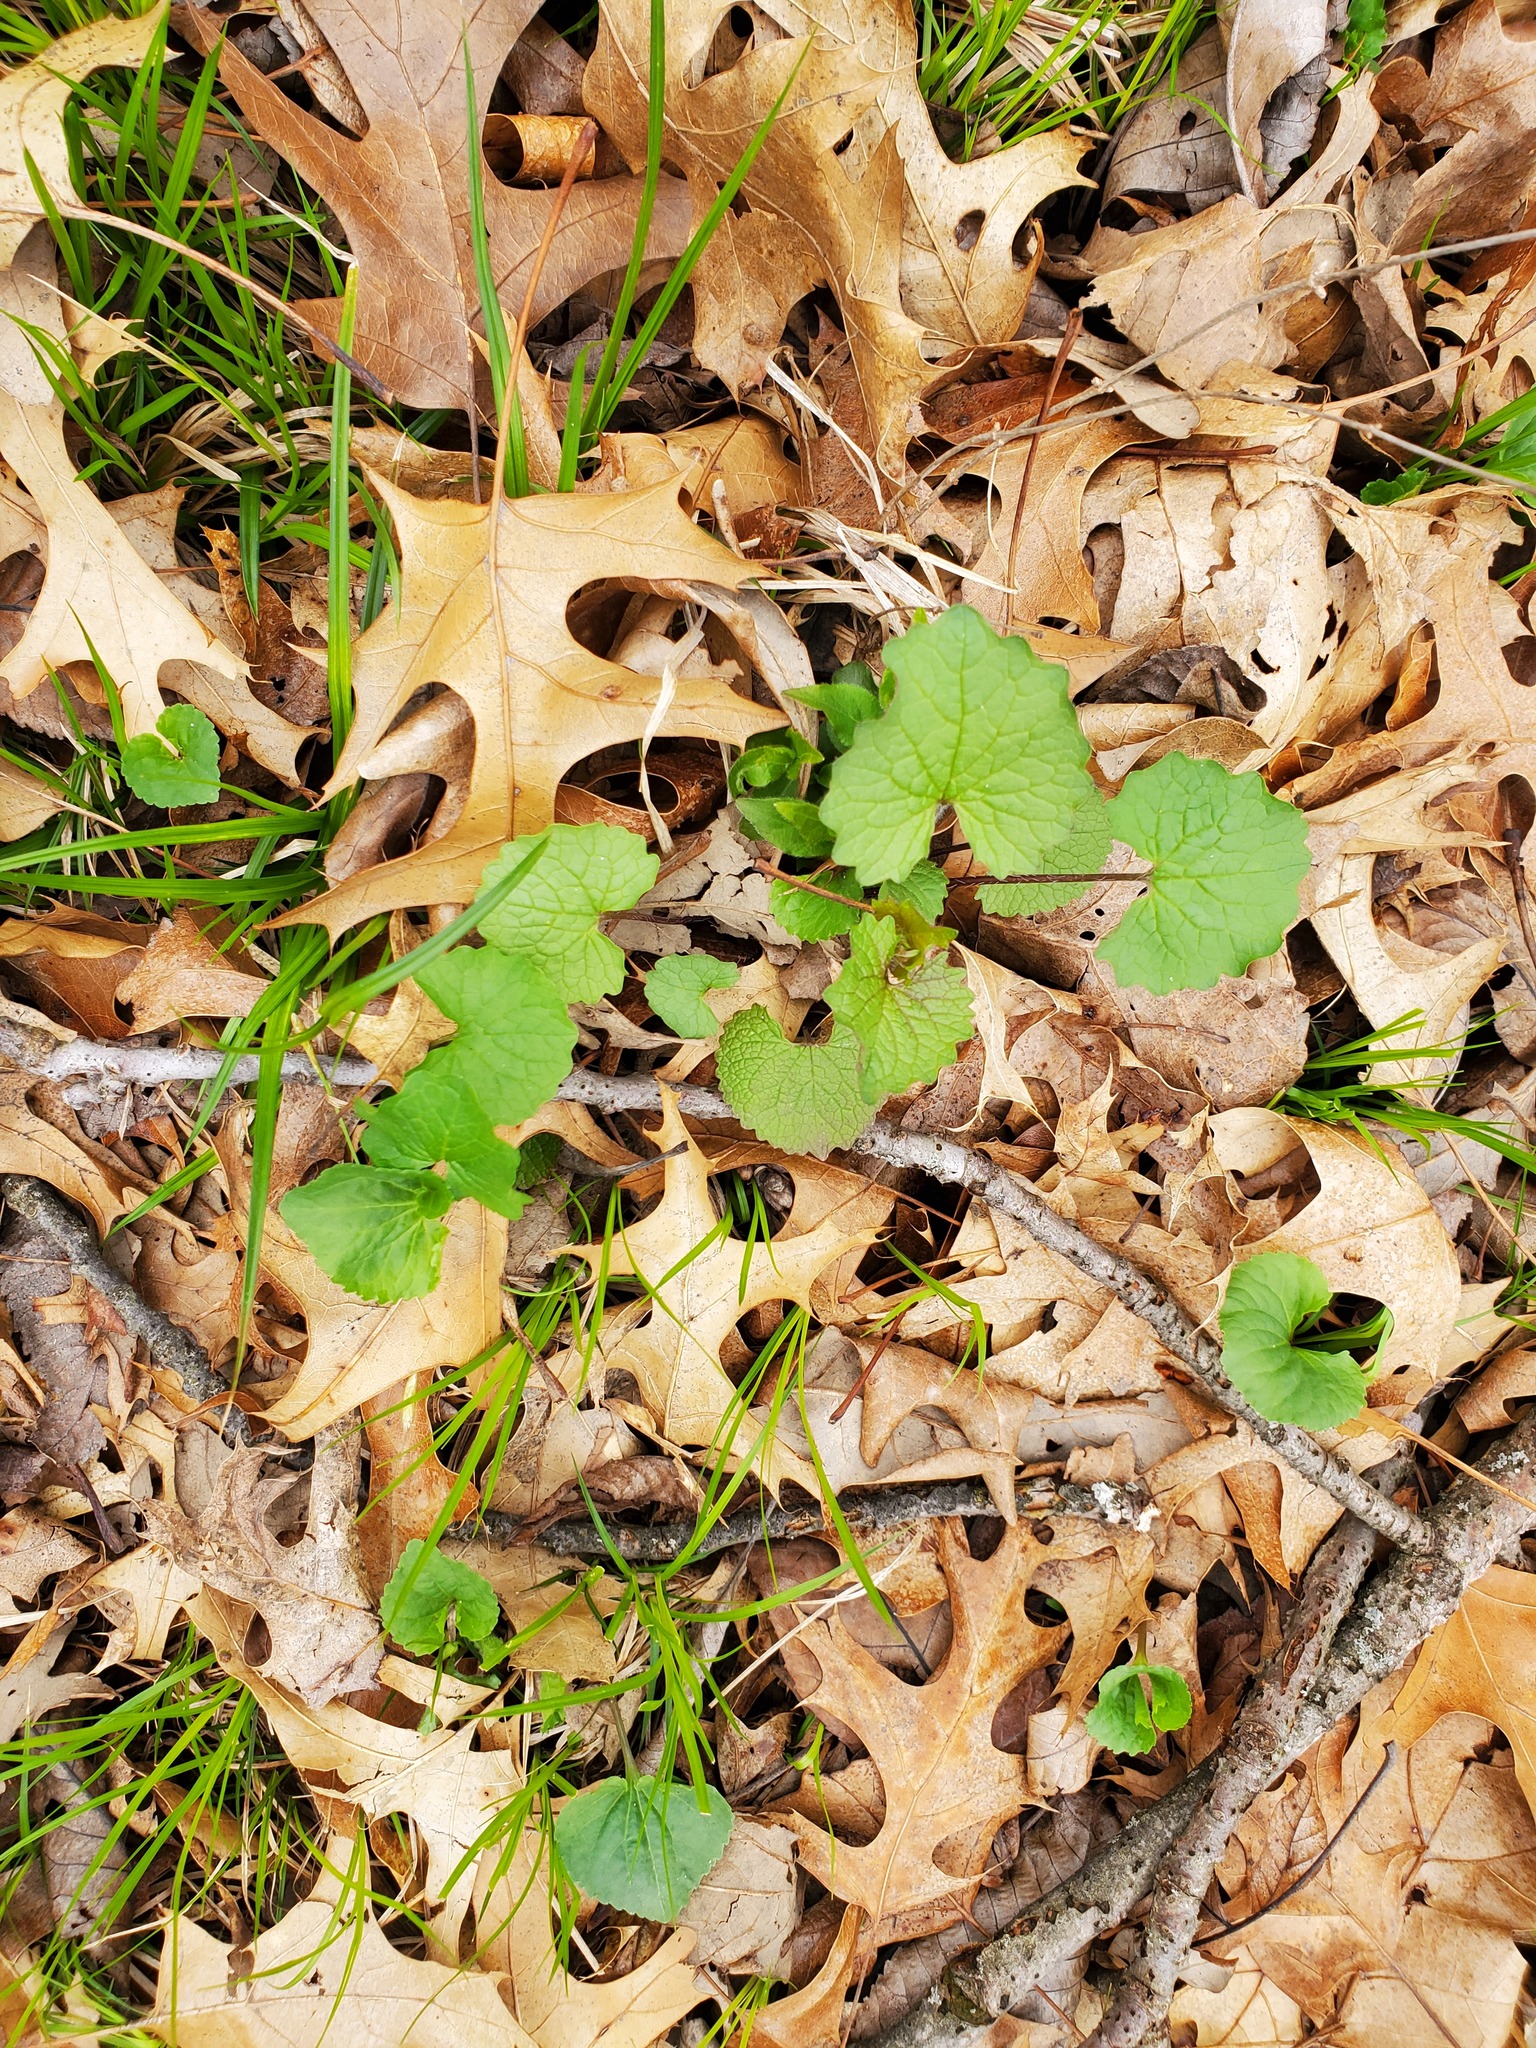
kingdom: Plantae
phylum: Tracheophyta
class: Magnoliopsida
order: Brassicales
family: Brassicaceae
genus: Alliaria
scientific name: Alliaria petiolata
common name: Garlic mustard
